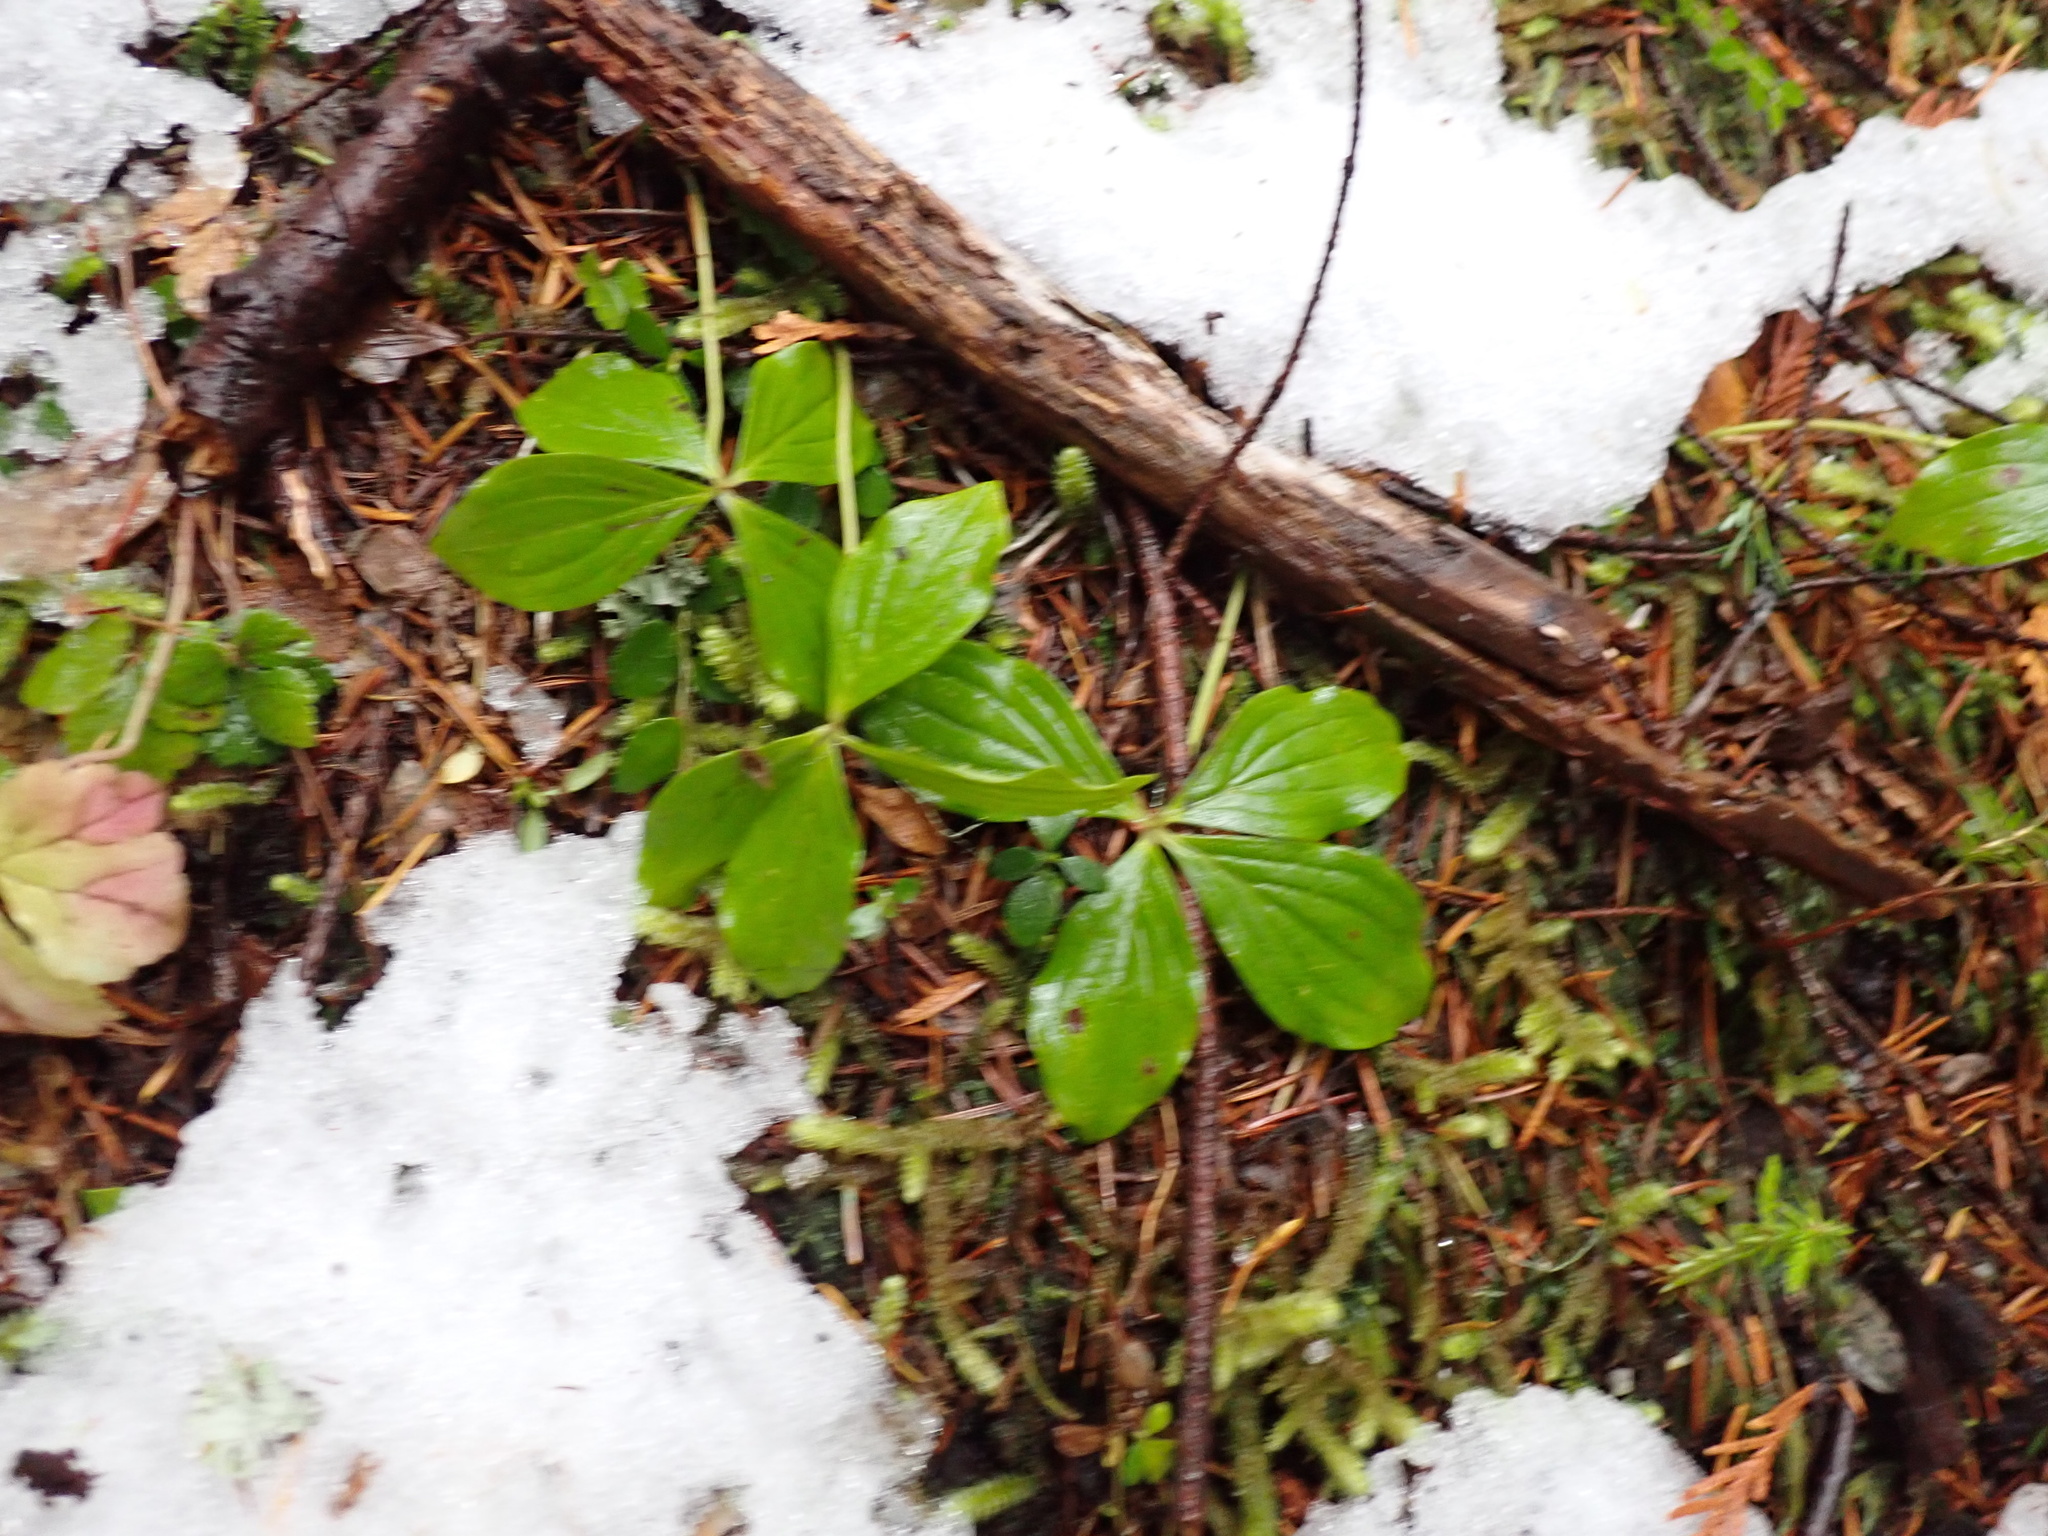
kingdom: Plantae
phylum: Tracheophyta
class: Magnoliopsida
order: Cornales
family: Cornaceae
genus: Cornus
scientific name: Cornus unalaschkensis
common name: Alaska bunchberry
